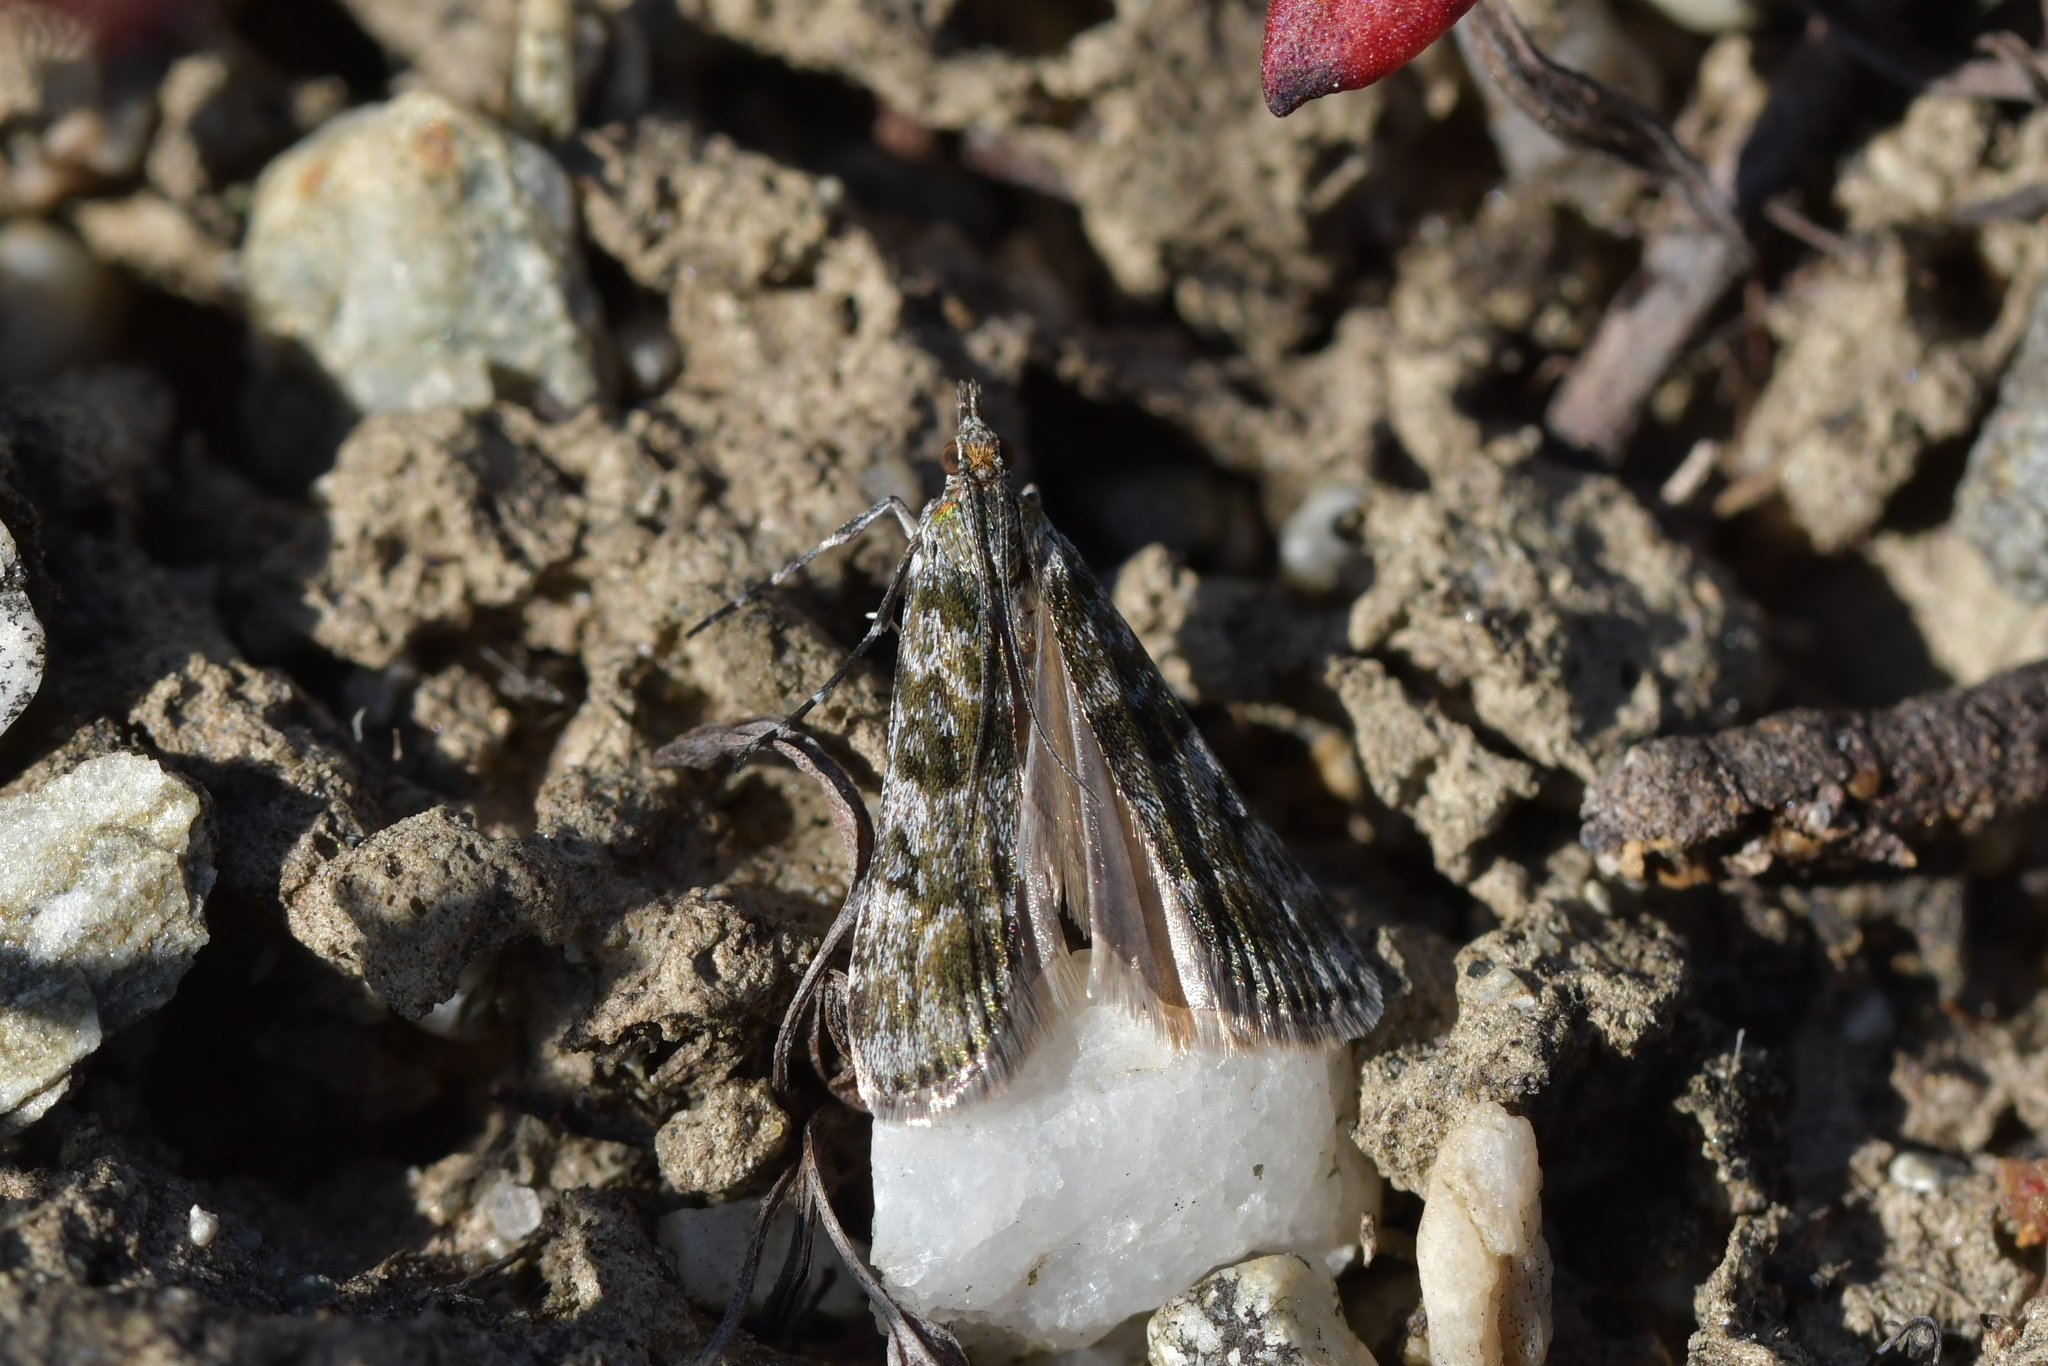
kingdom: Animalia
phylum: Arthropoda
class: Insecta
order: Lepidoptera
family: Crambidae
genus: Eudonia
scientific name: Eudonia gyrotoma
